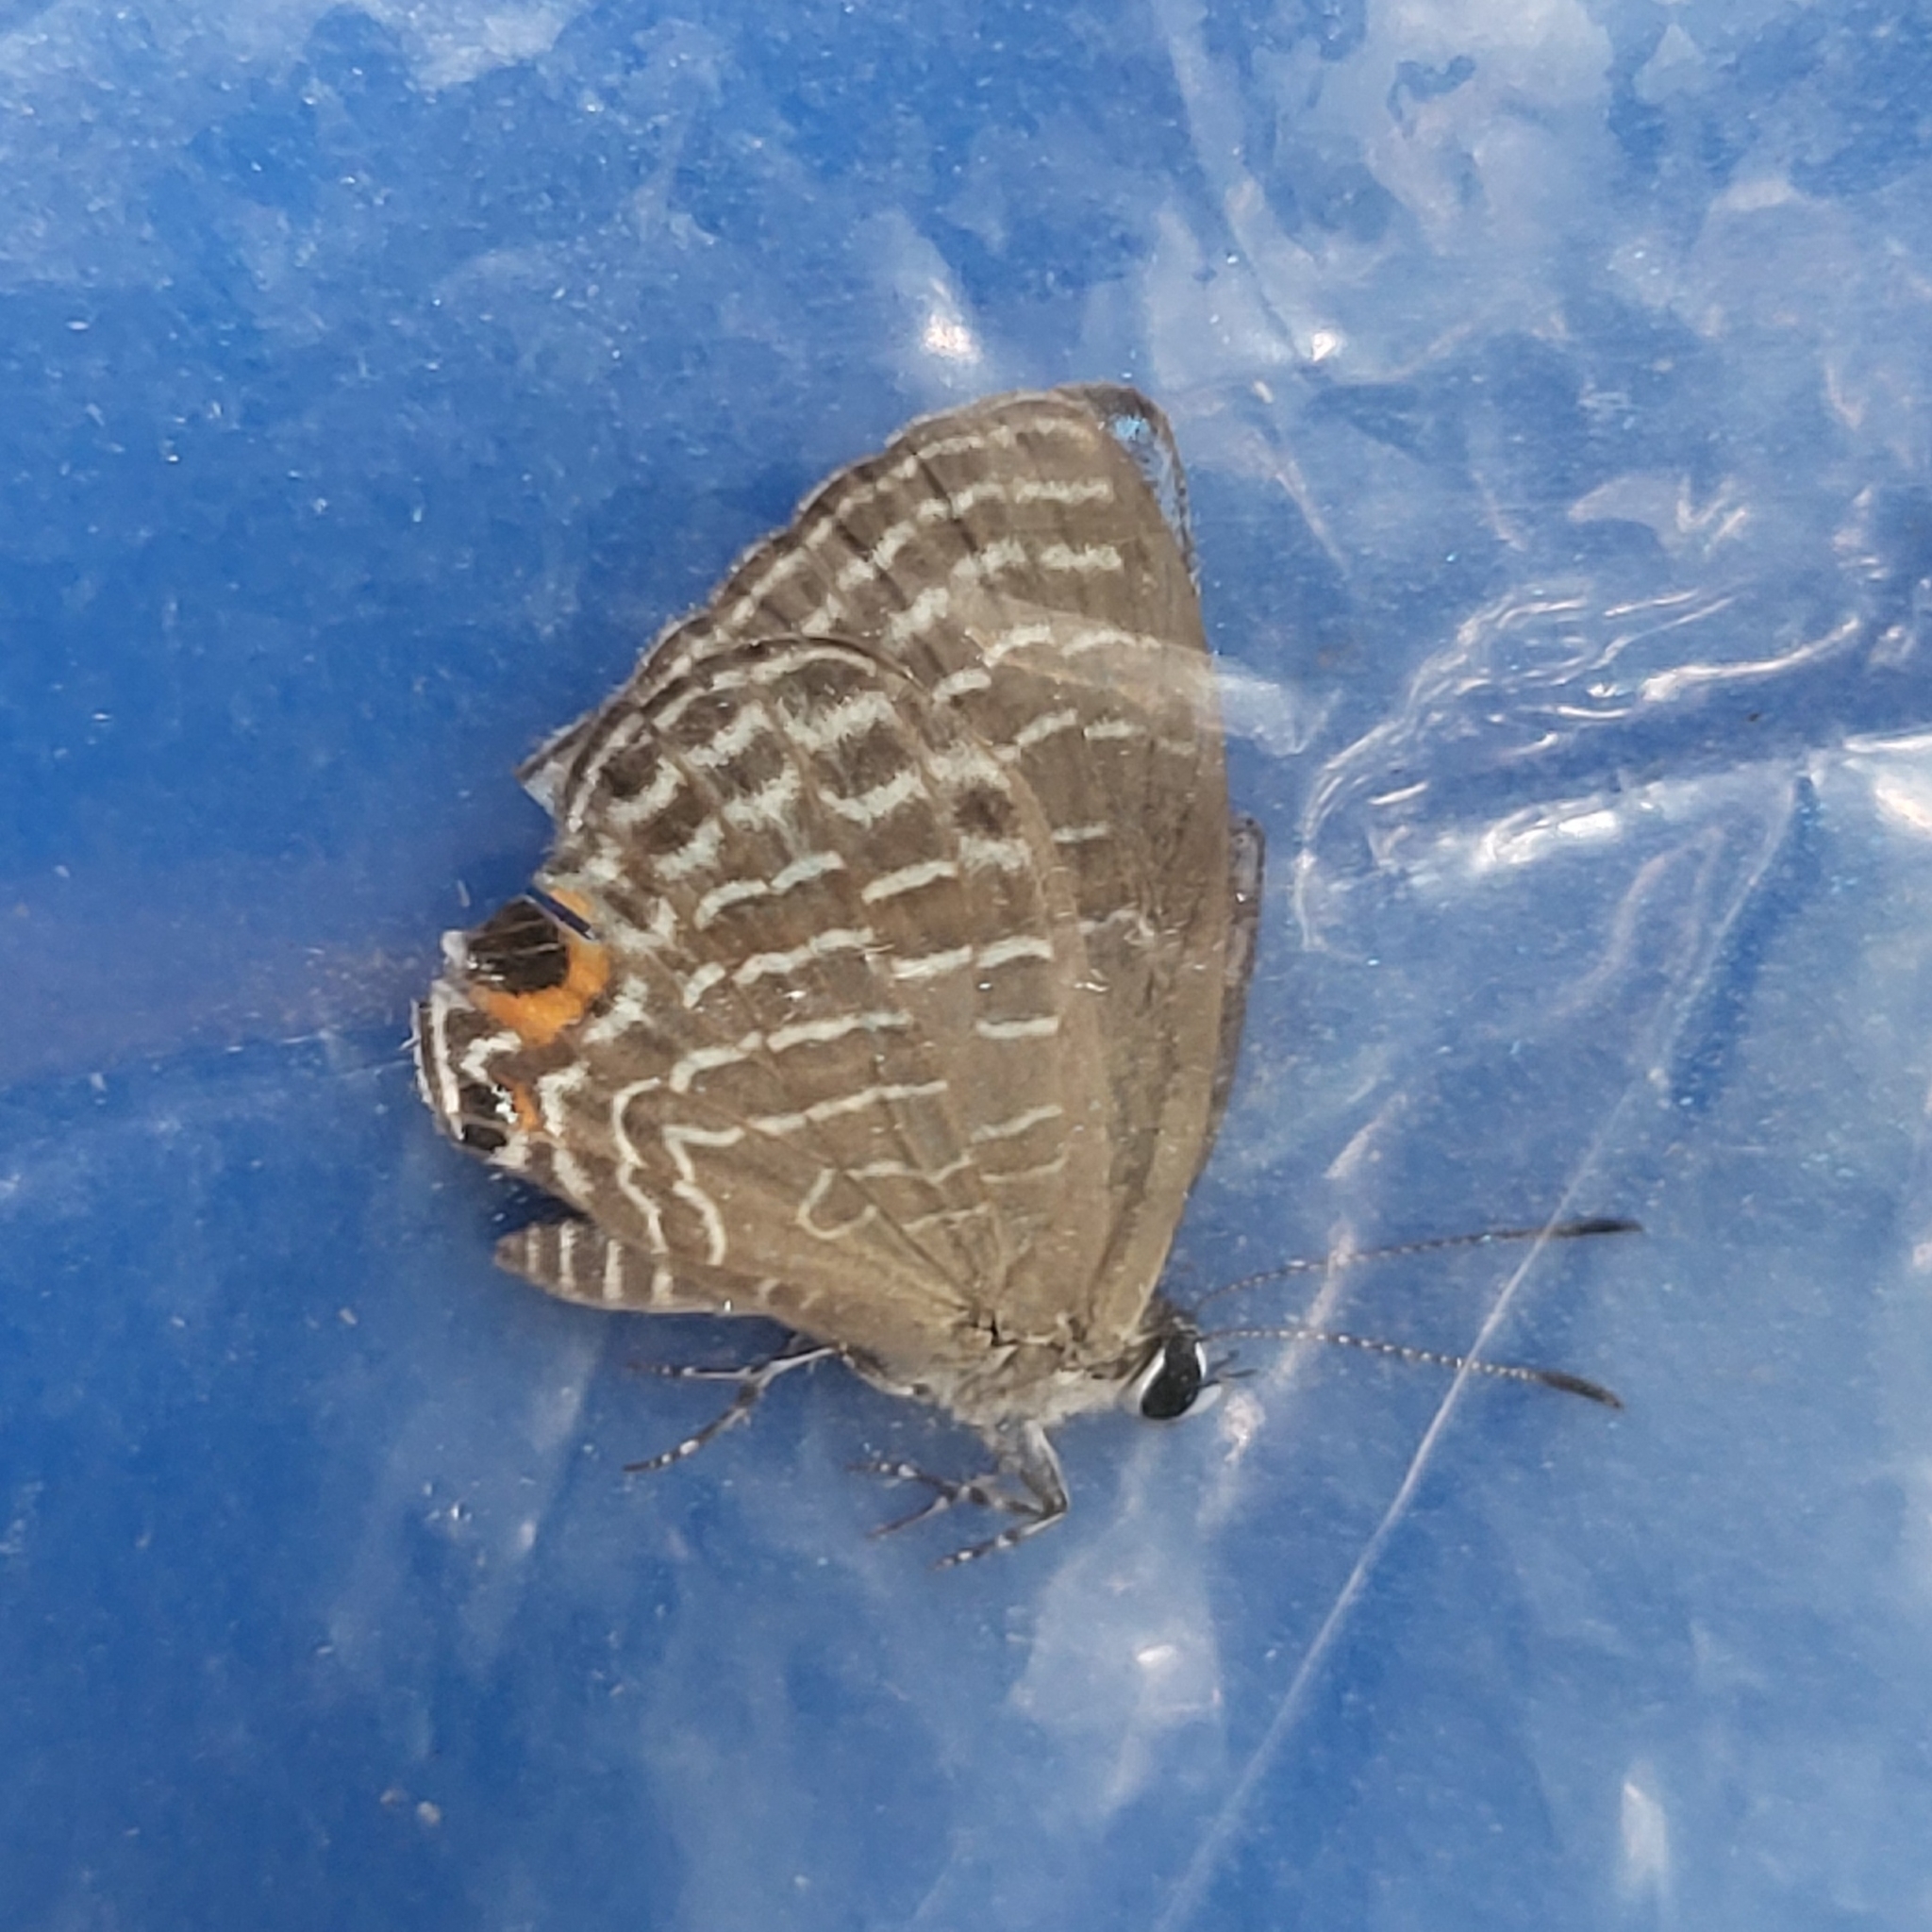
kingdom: Animalia
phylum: Arthropoda
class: Insecta
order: Lepidoptera
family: Lycaenidae
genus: Jamides
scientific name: Jamides caerulea
